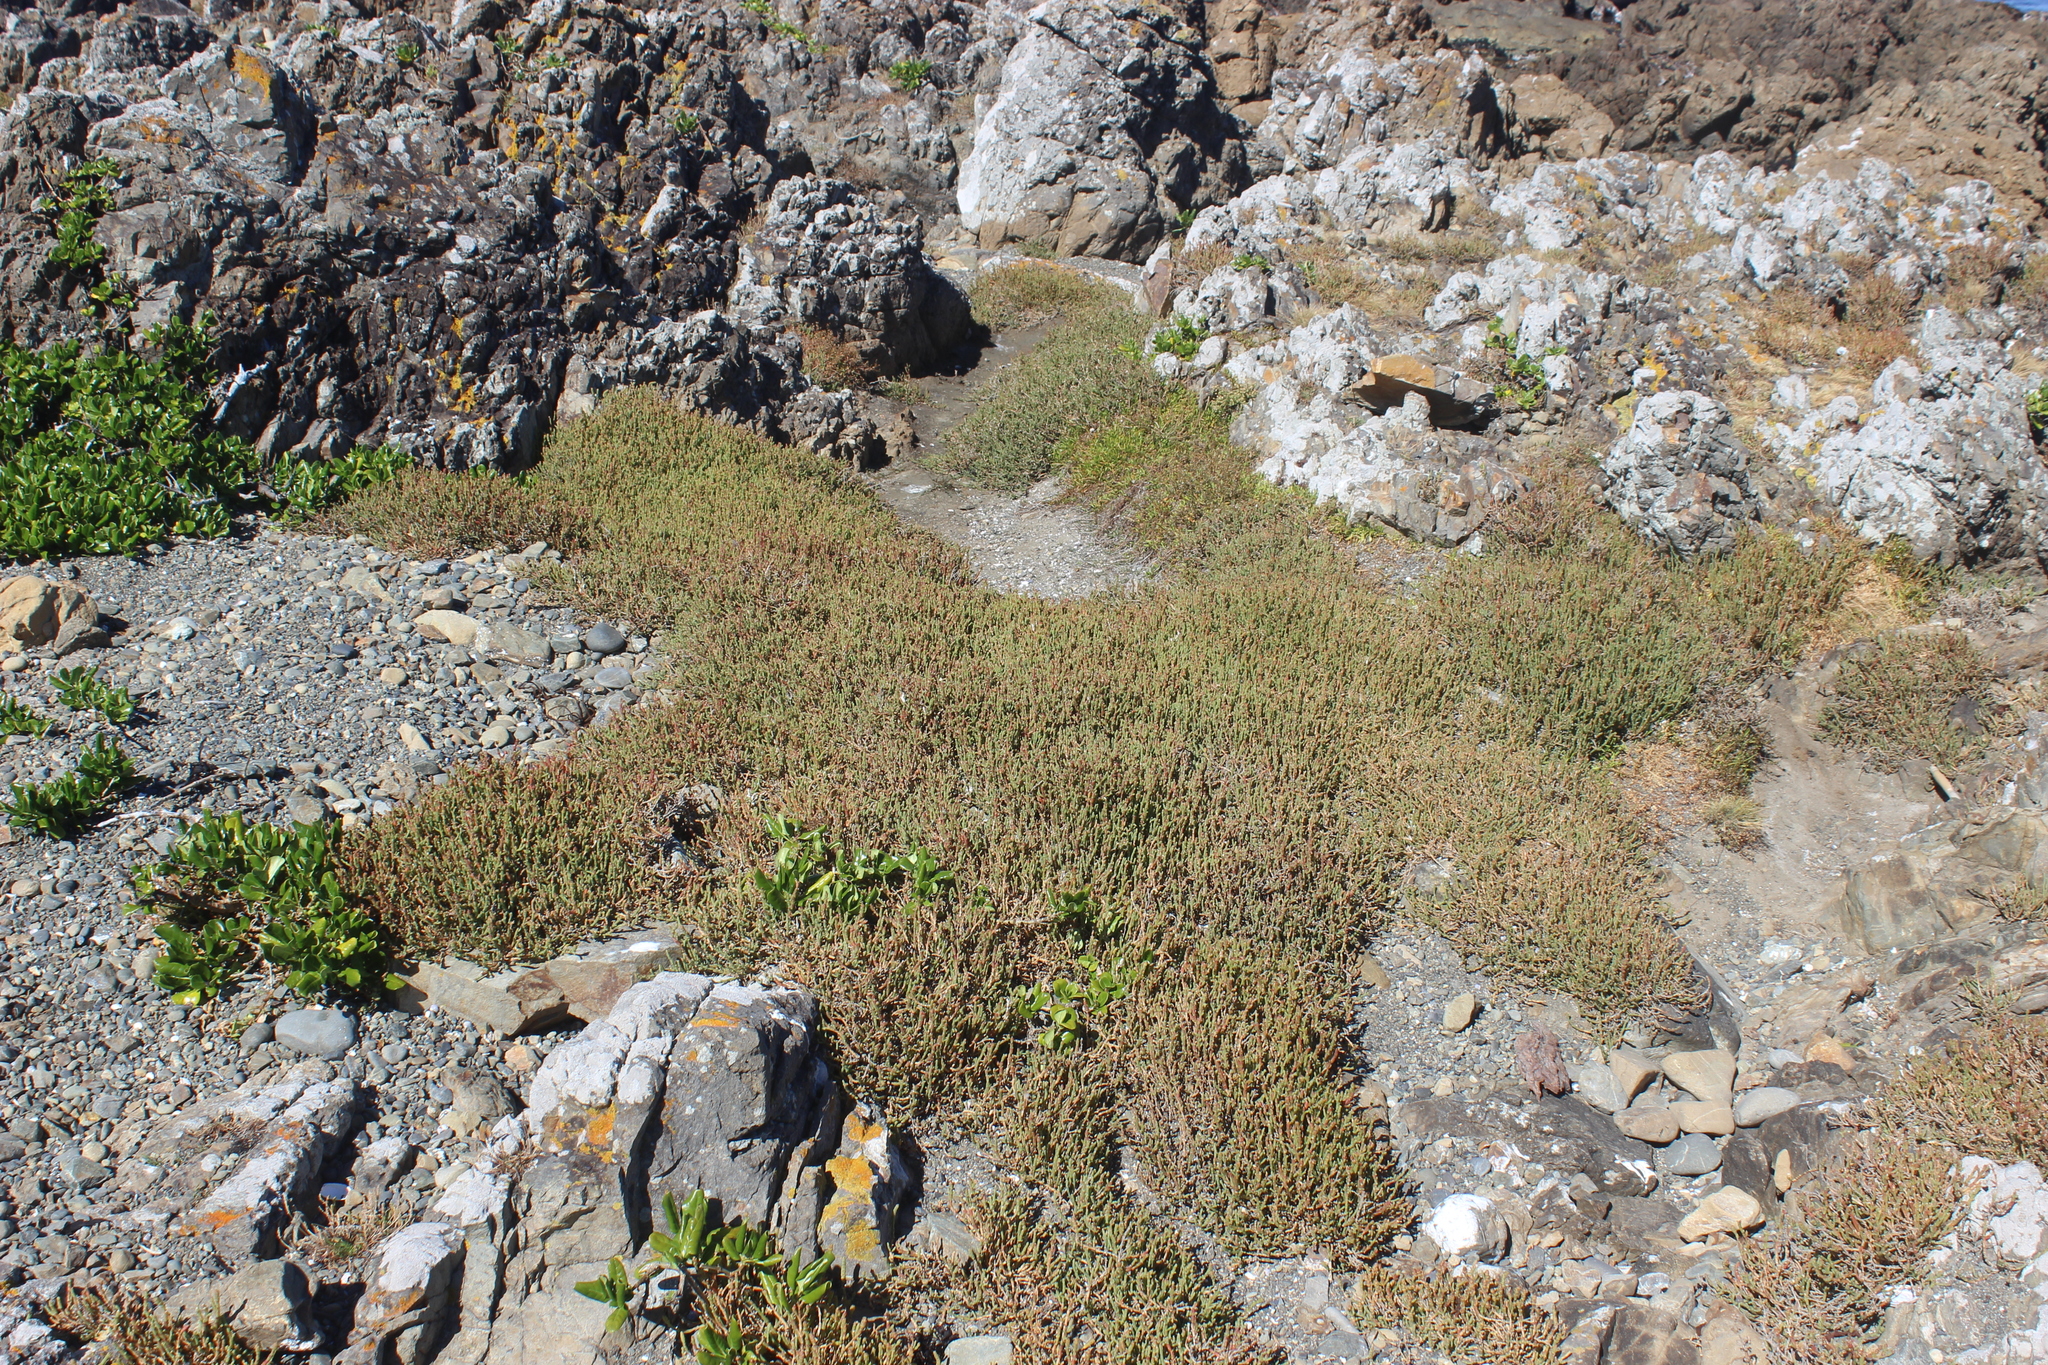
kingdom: Plantae
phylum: Tracheophyta
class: Magnoliopsida
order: Caryophyllales
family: Amaranthaceae
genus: Salicornia
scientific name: Salicornia quinqueflora
